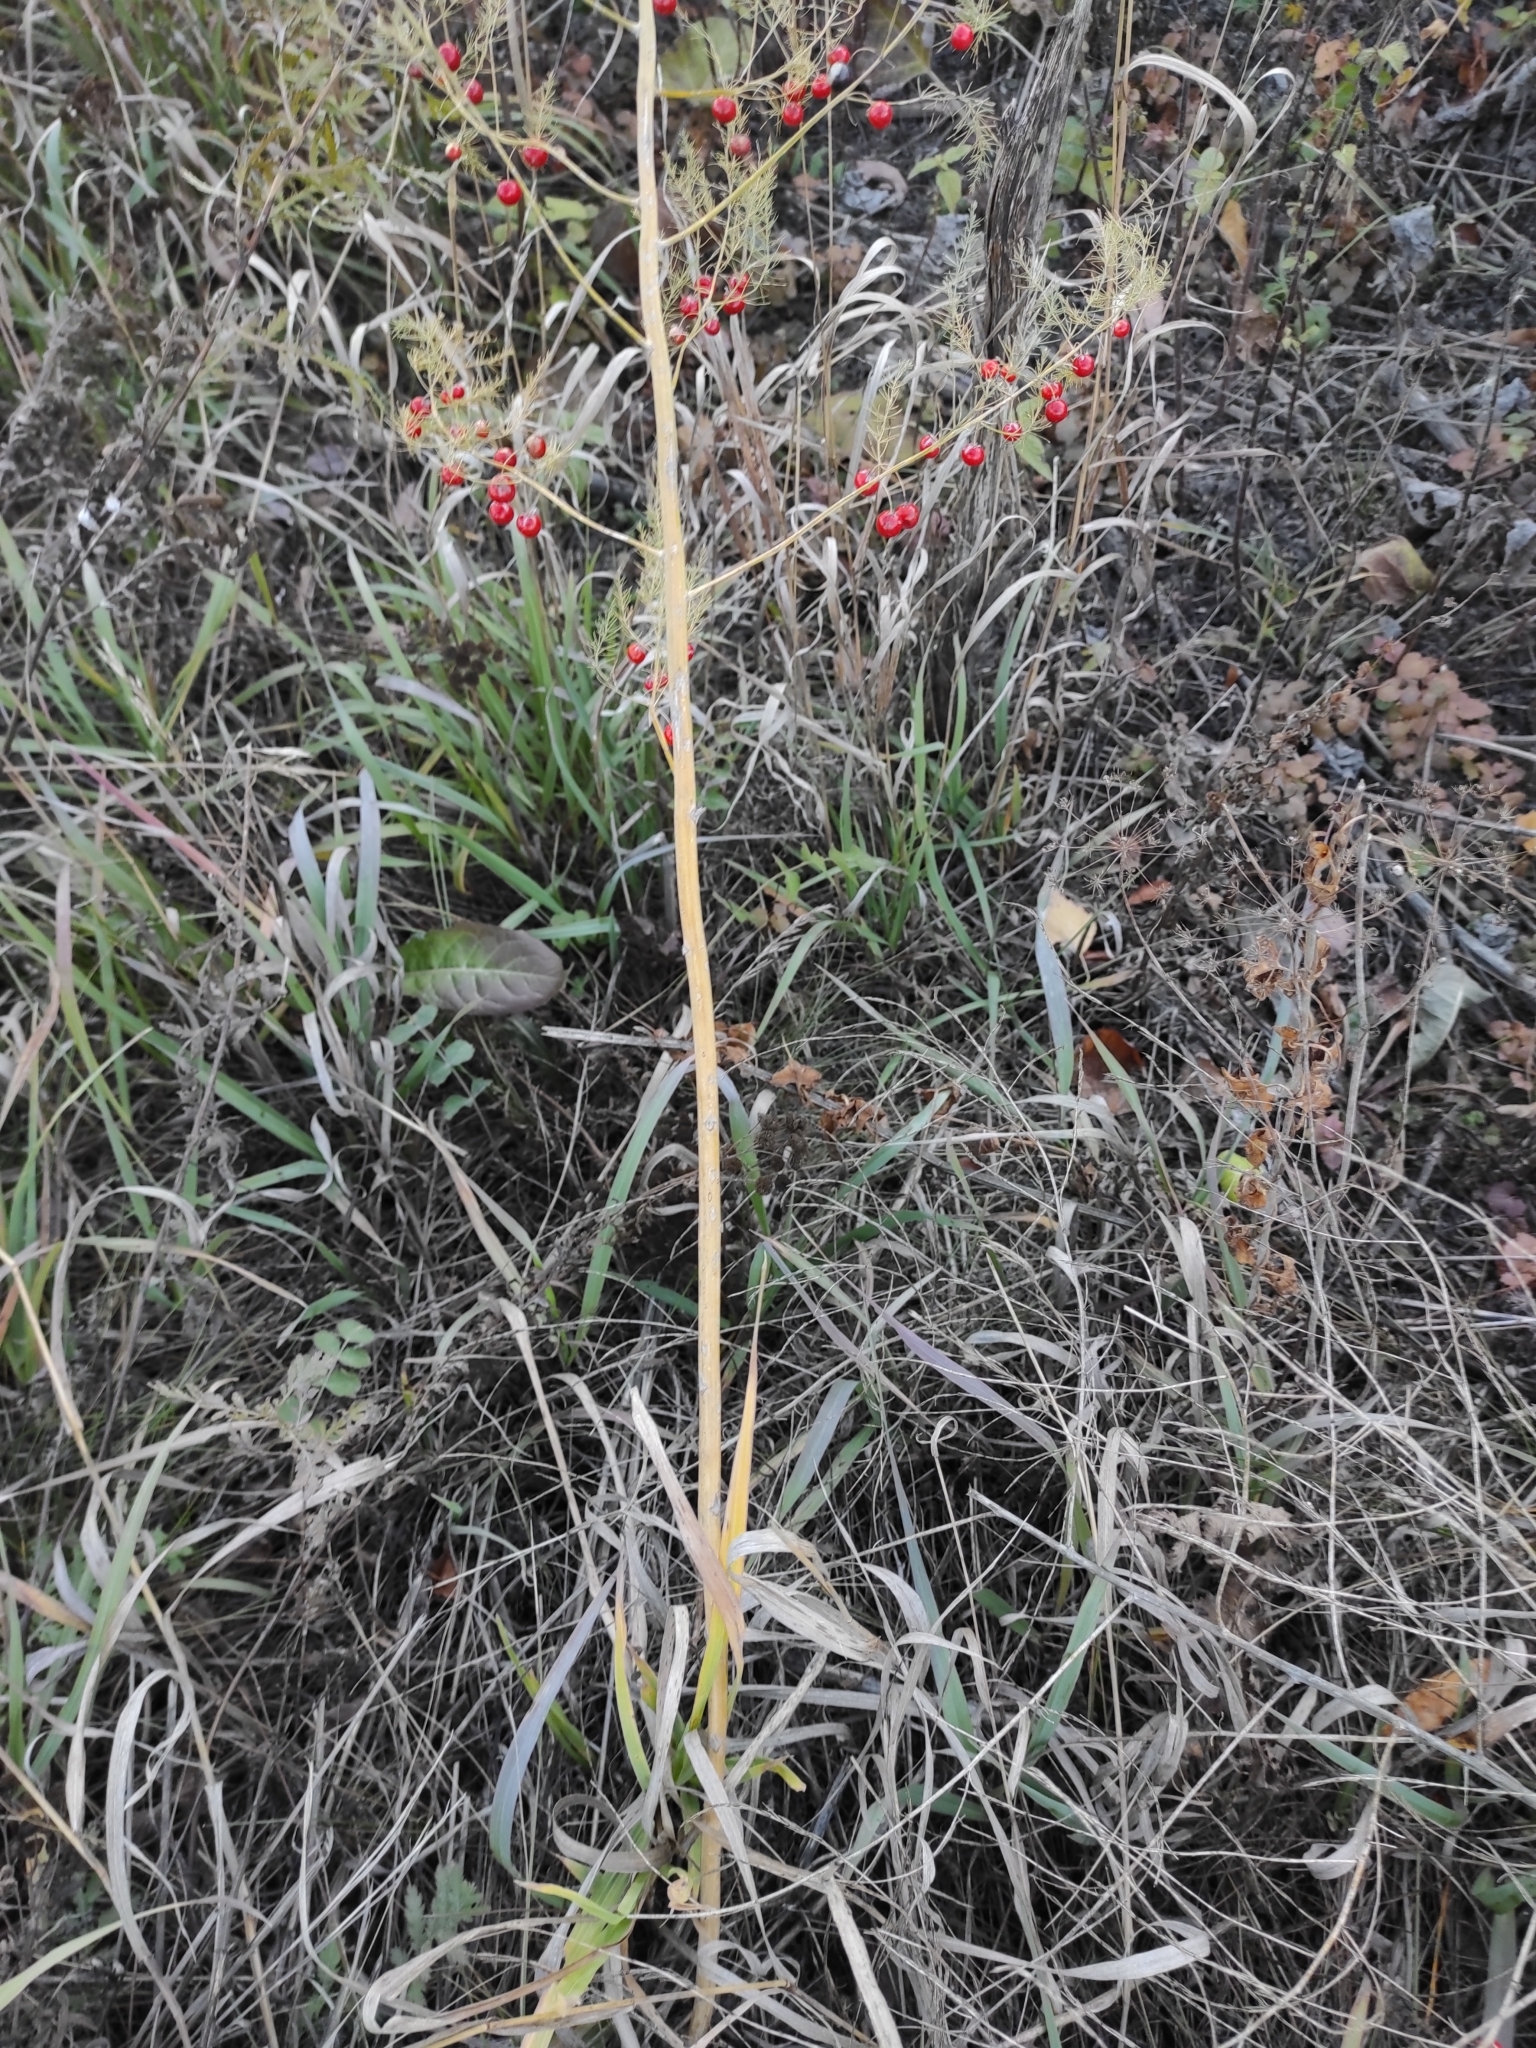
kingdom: Plantae
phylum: Tracheophyta
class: Liliopsida
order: Asparagales
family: Asparagaceae
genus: Asparagus
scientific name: Asparagus officinalis
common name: Garden asparagus
